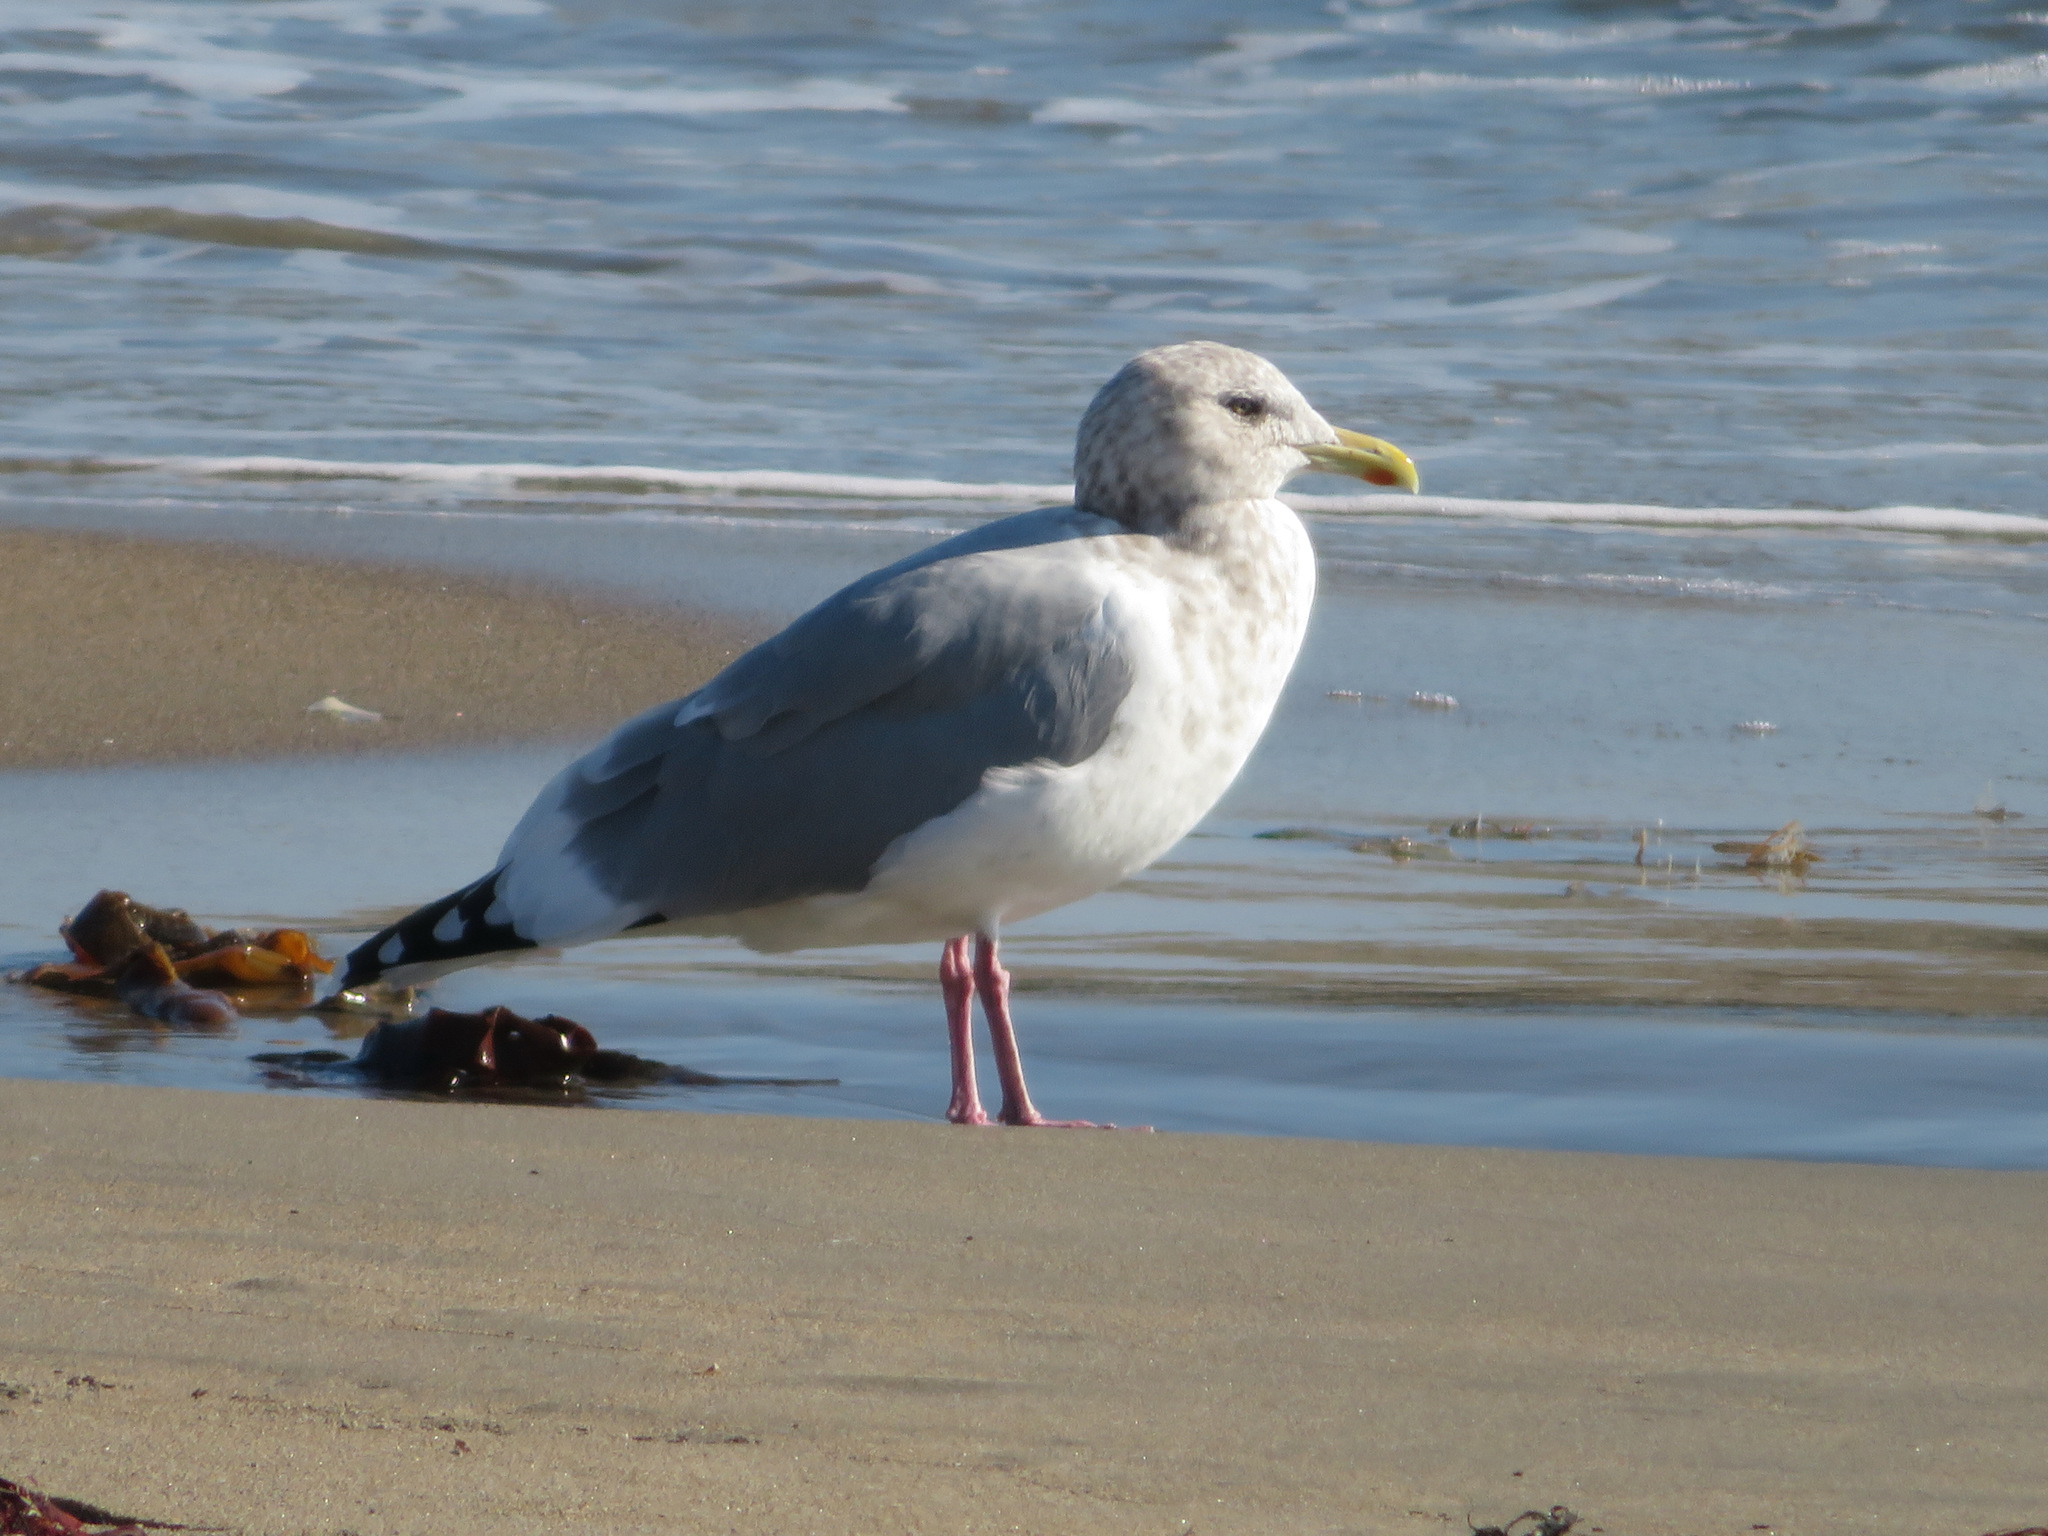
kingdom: Animalia
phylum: Chordata
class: Aves
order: Charadriiformes
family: Laridae
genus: Larus
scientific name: Larus vegae
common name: Vega gull
